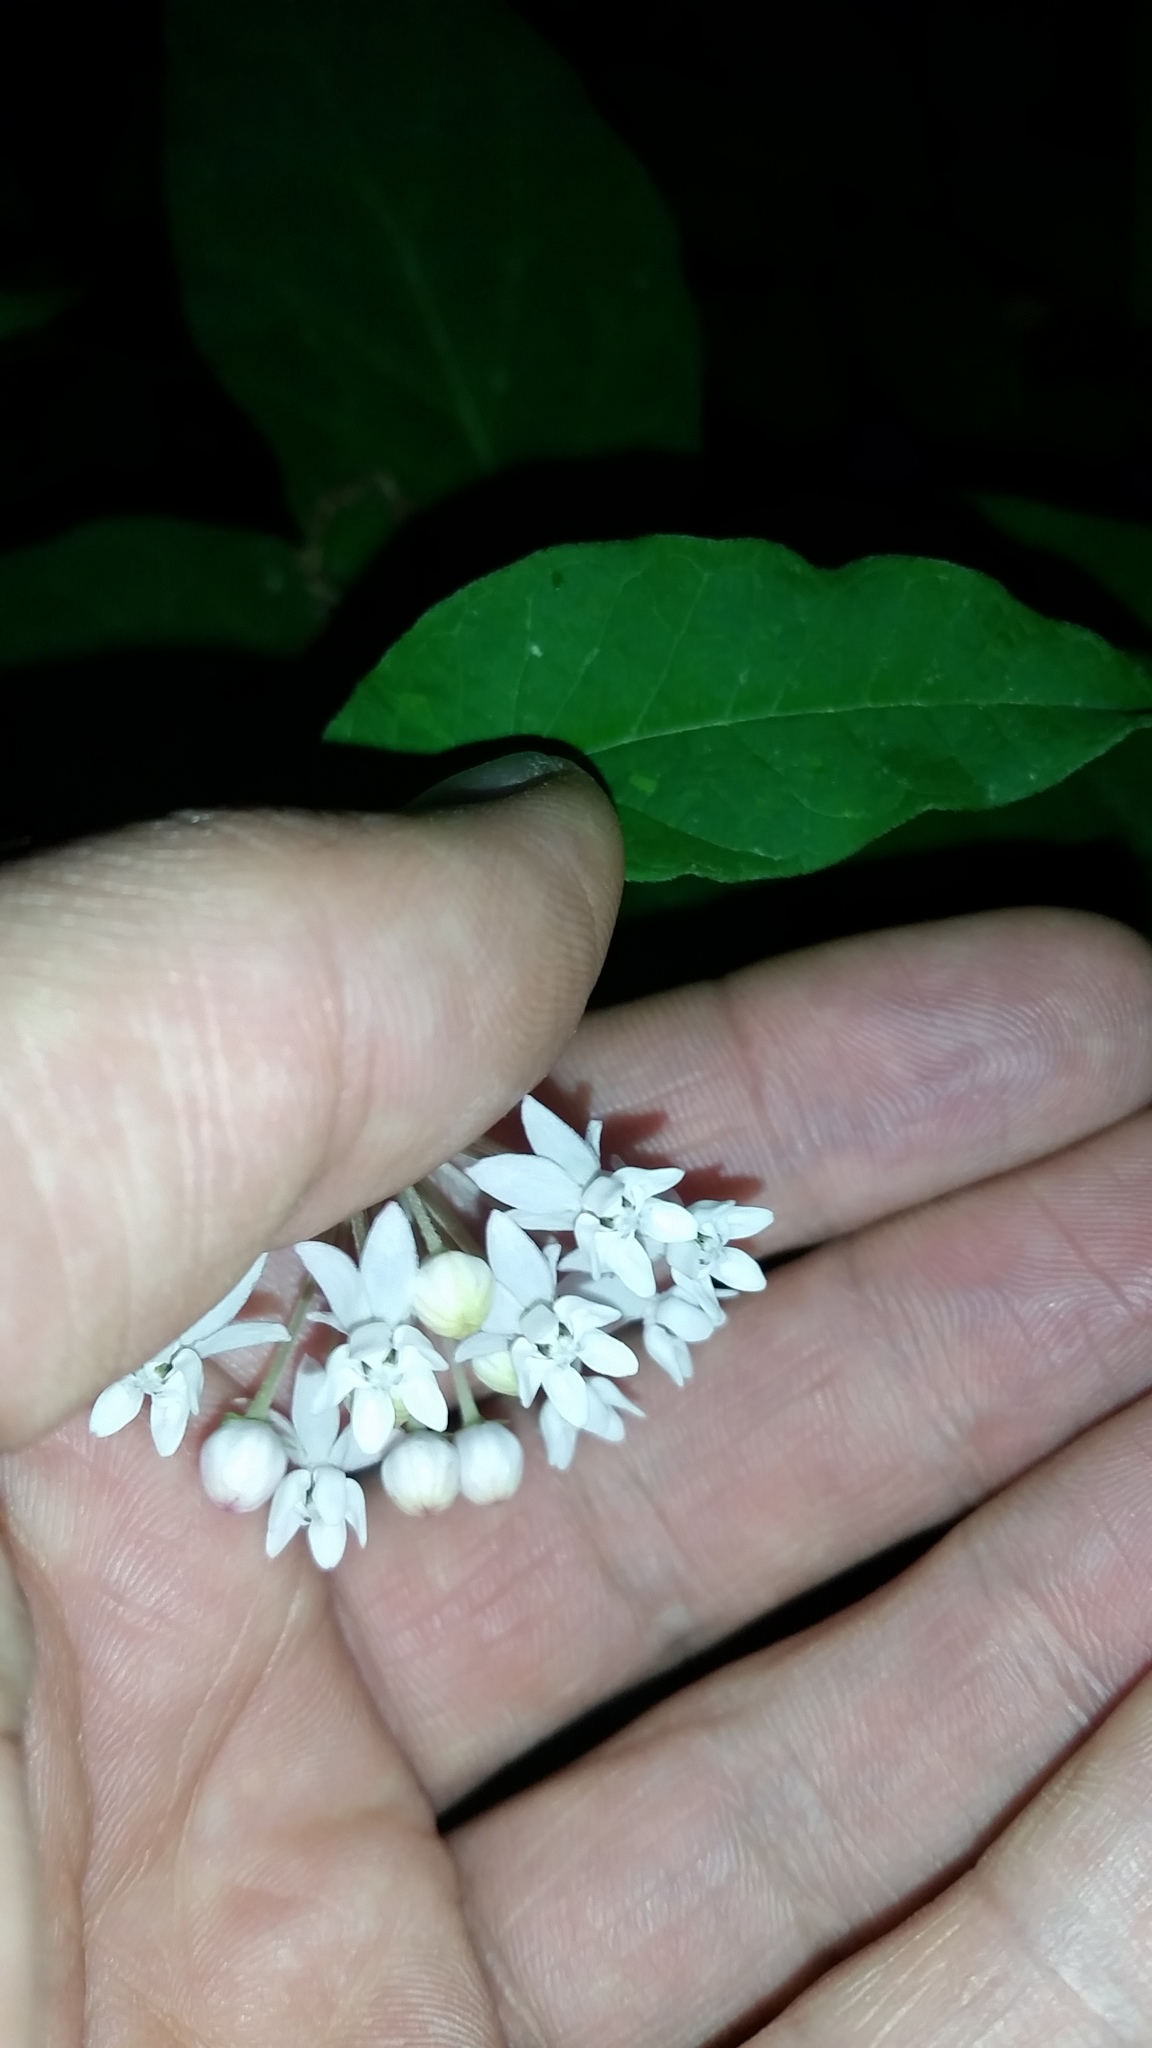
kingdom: Plantae
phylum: Tracheophyta
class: Magnoliopsida
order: Gentianales
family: Apocynaceae
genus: Asclepias
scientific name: Asclepias quadrifolia
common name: Whorled milkweed
